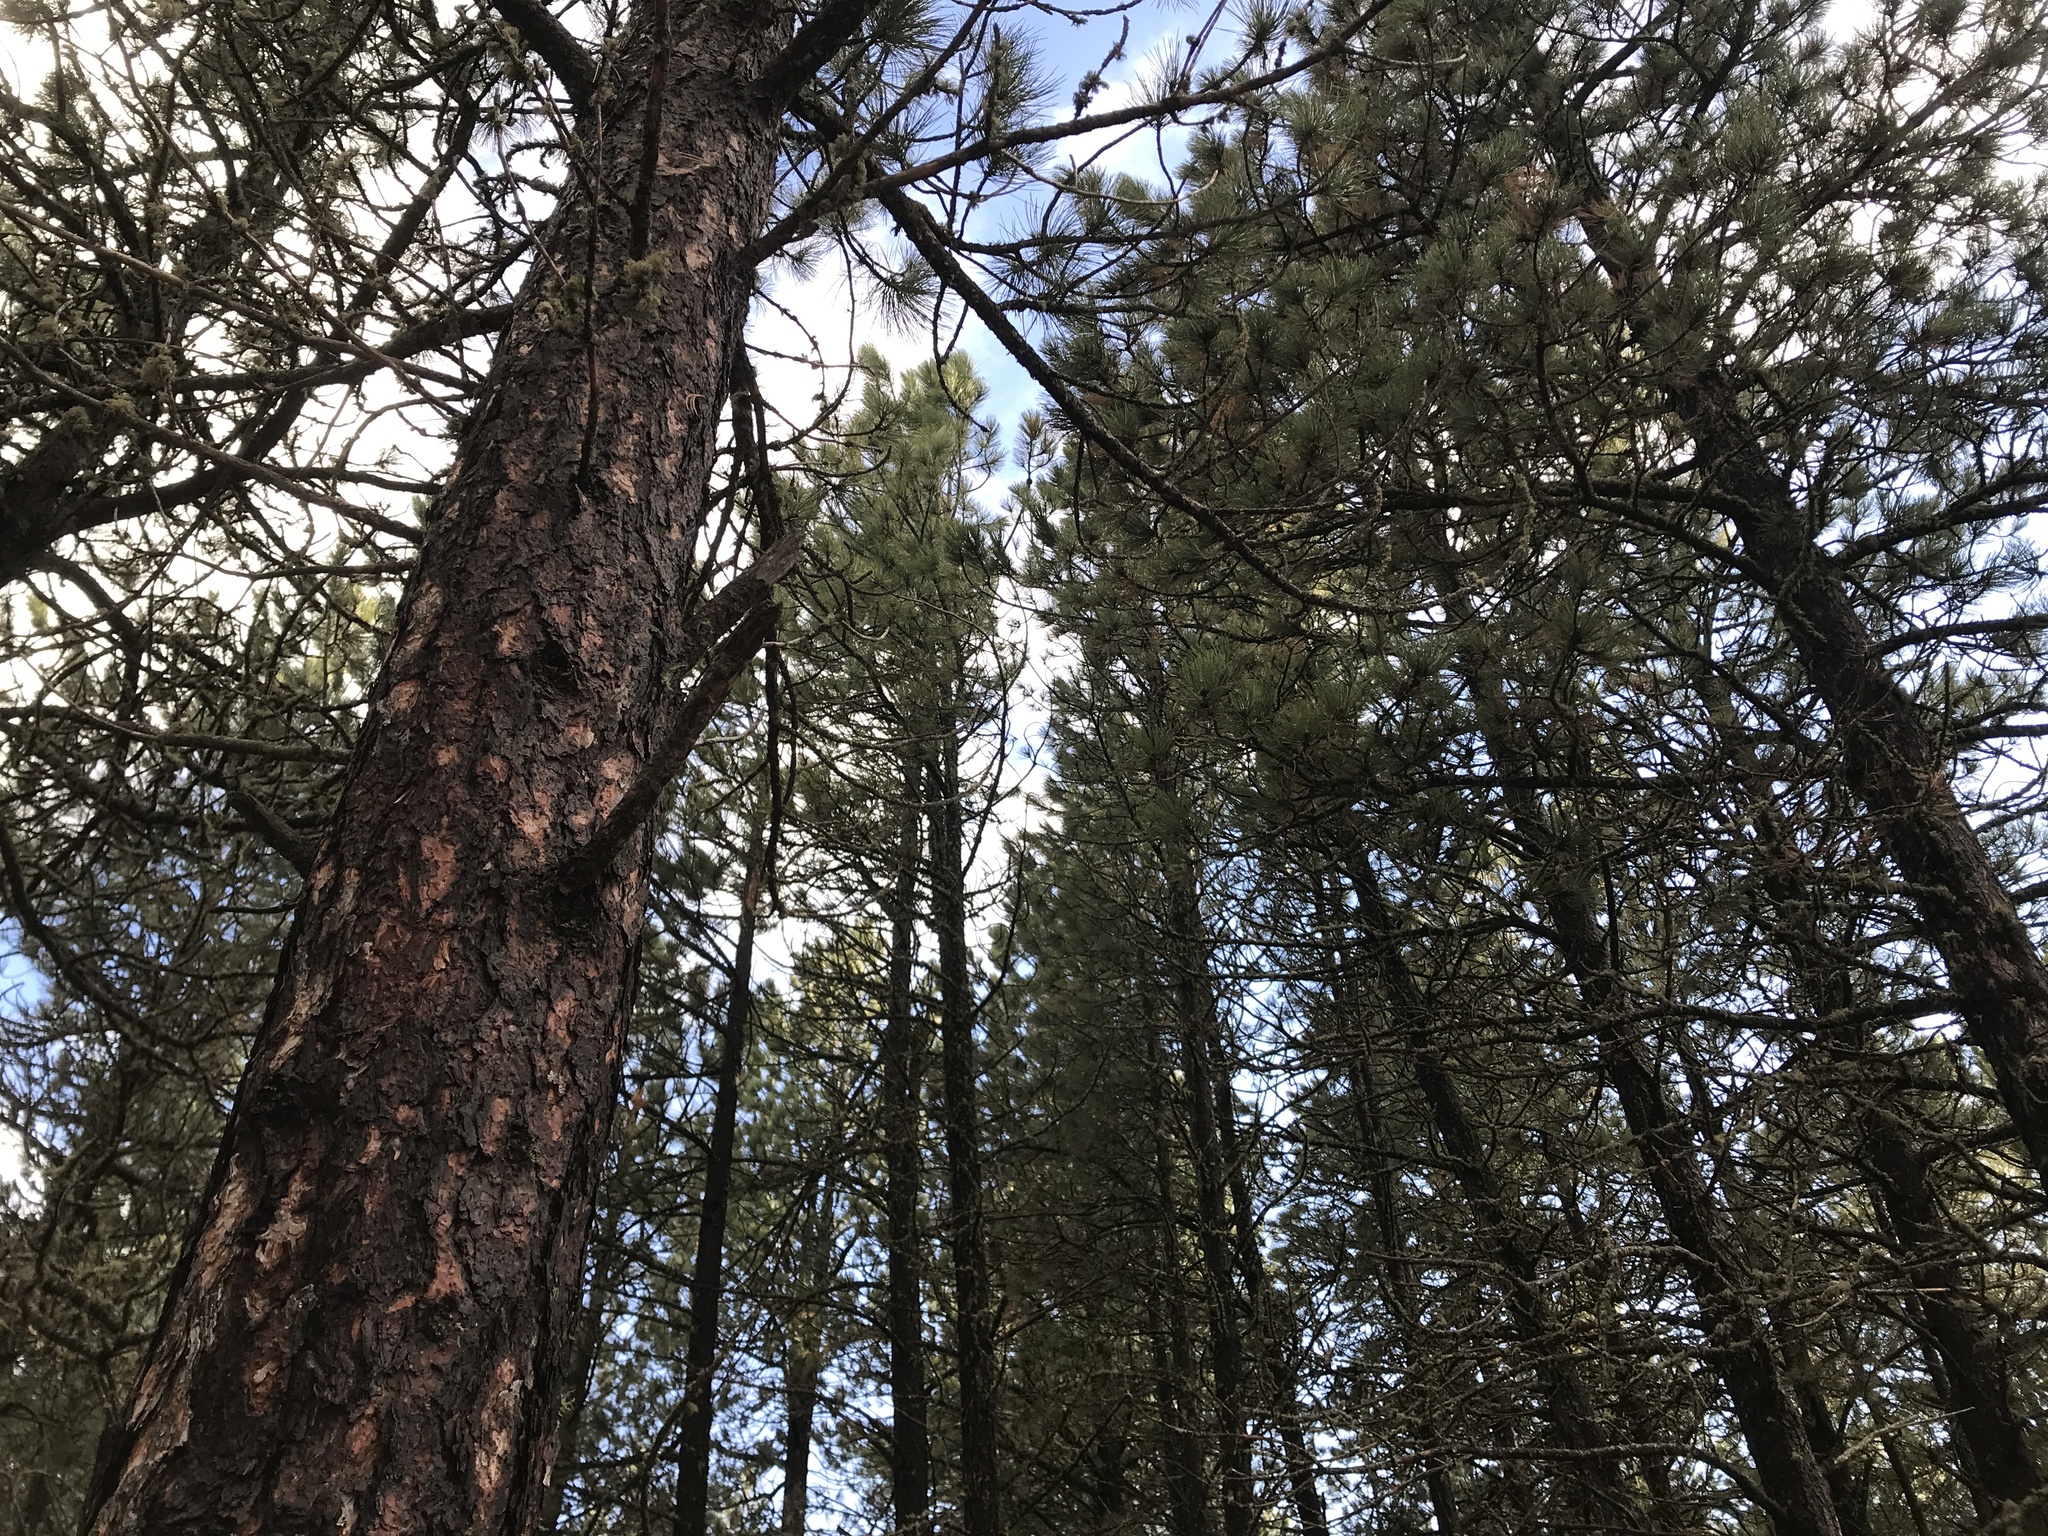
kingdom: Plantae
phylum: Tracheophyta
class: Pinopsida
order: Pinales
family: Pinaceae
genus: Pinus
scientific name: Pinus ponderosa
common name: Western yellow-pine
